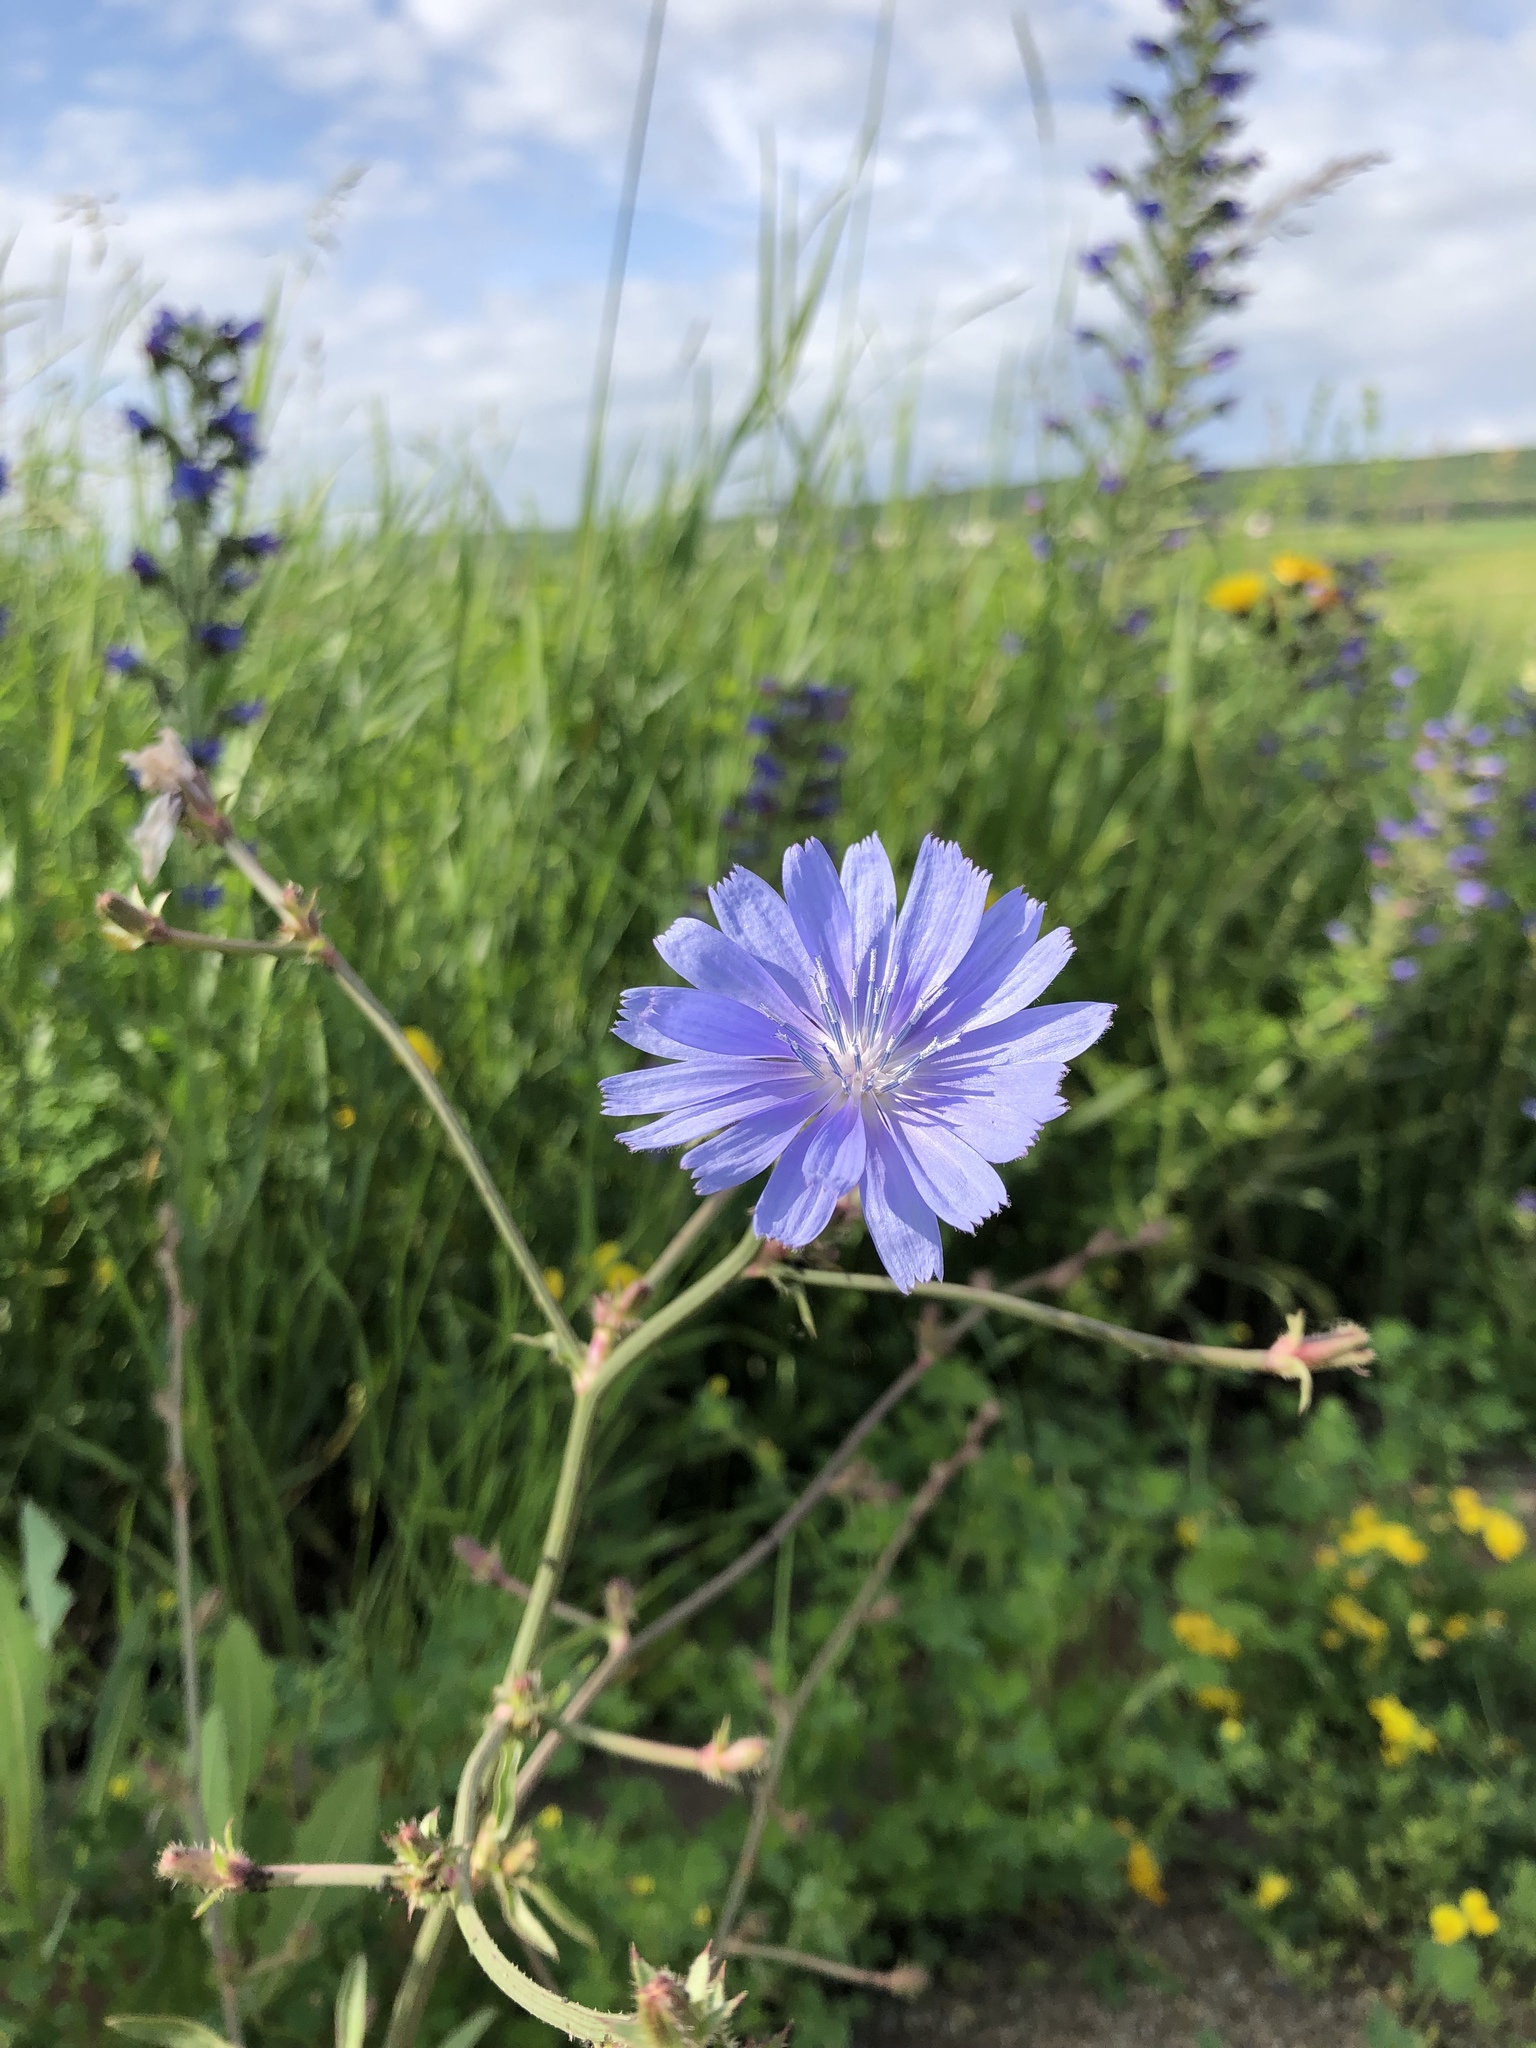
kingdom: Plantae
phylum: Tracheophyta
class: Magnoliopsida
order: Asterales
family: Asteraceae
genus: Cichorium
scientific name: Cichorium intybus
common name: Chicory
